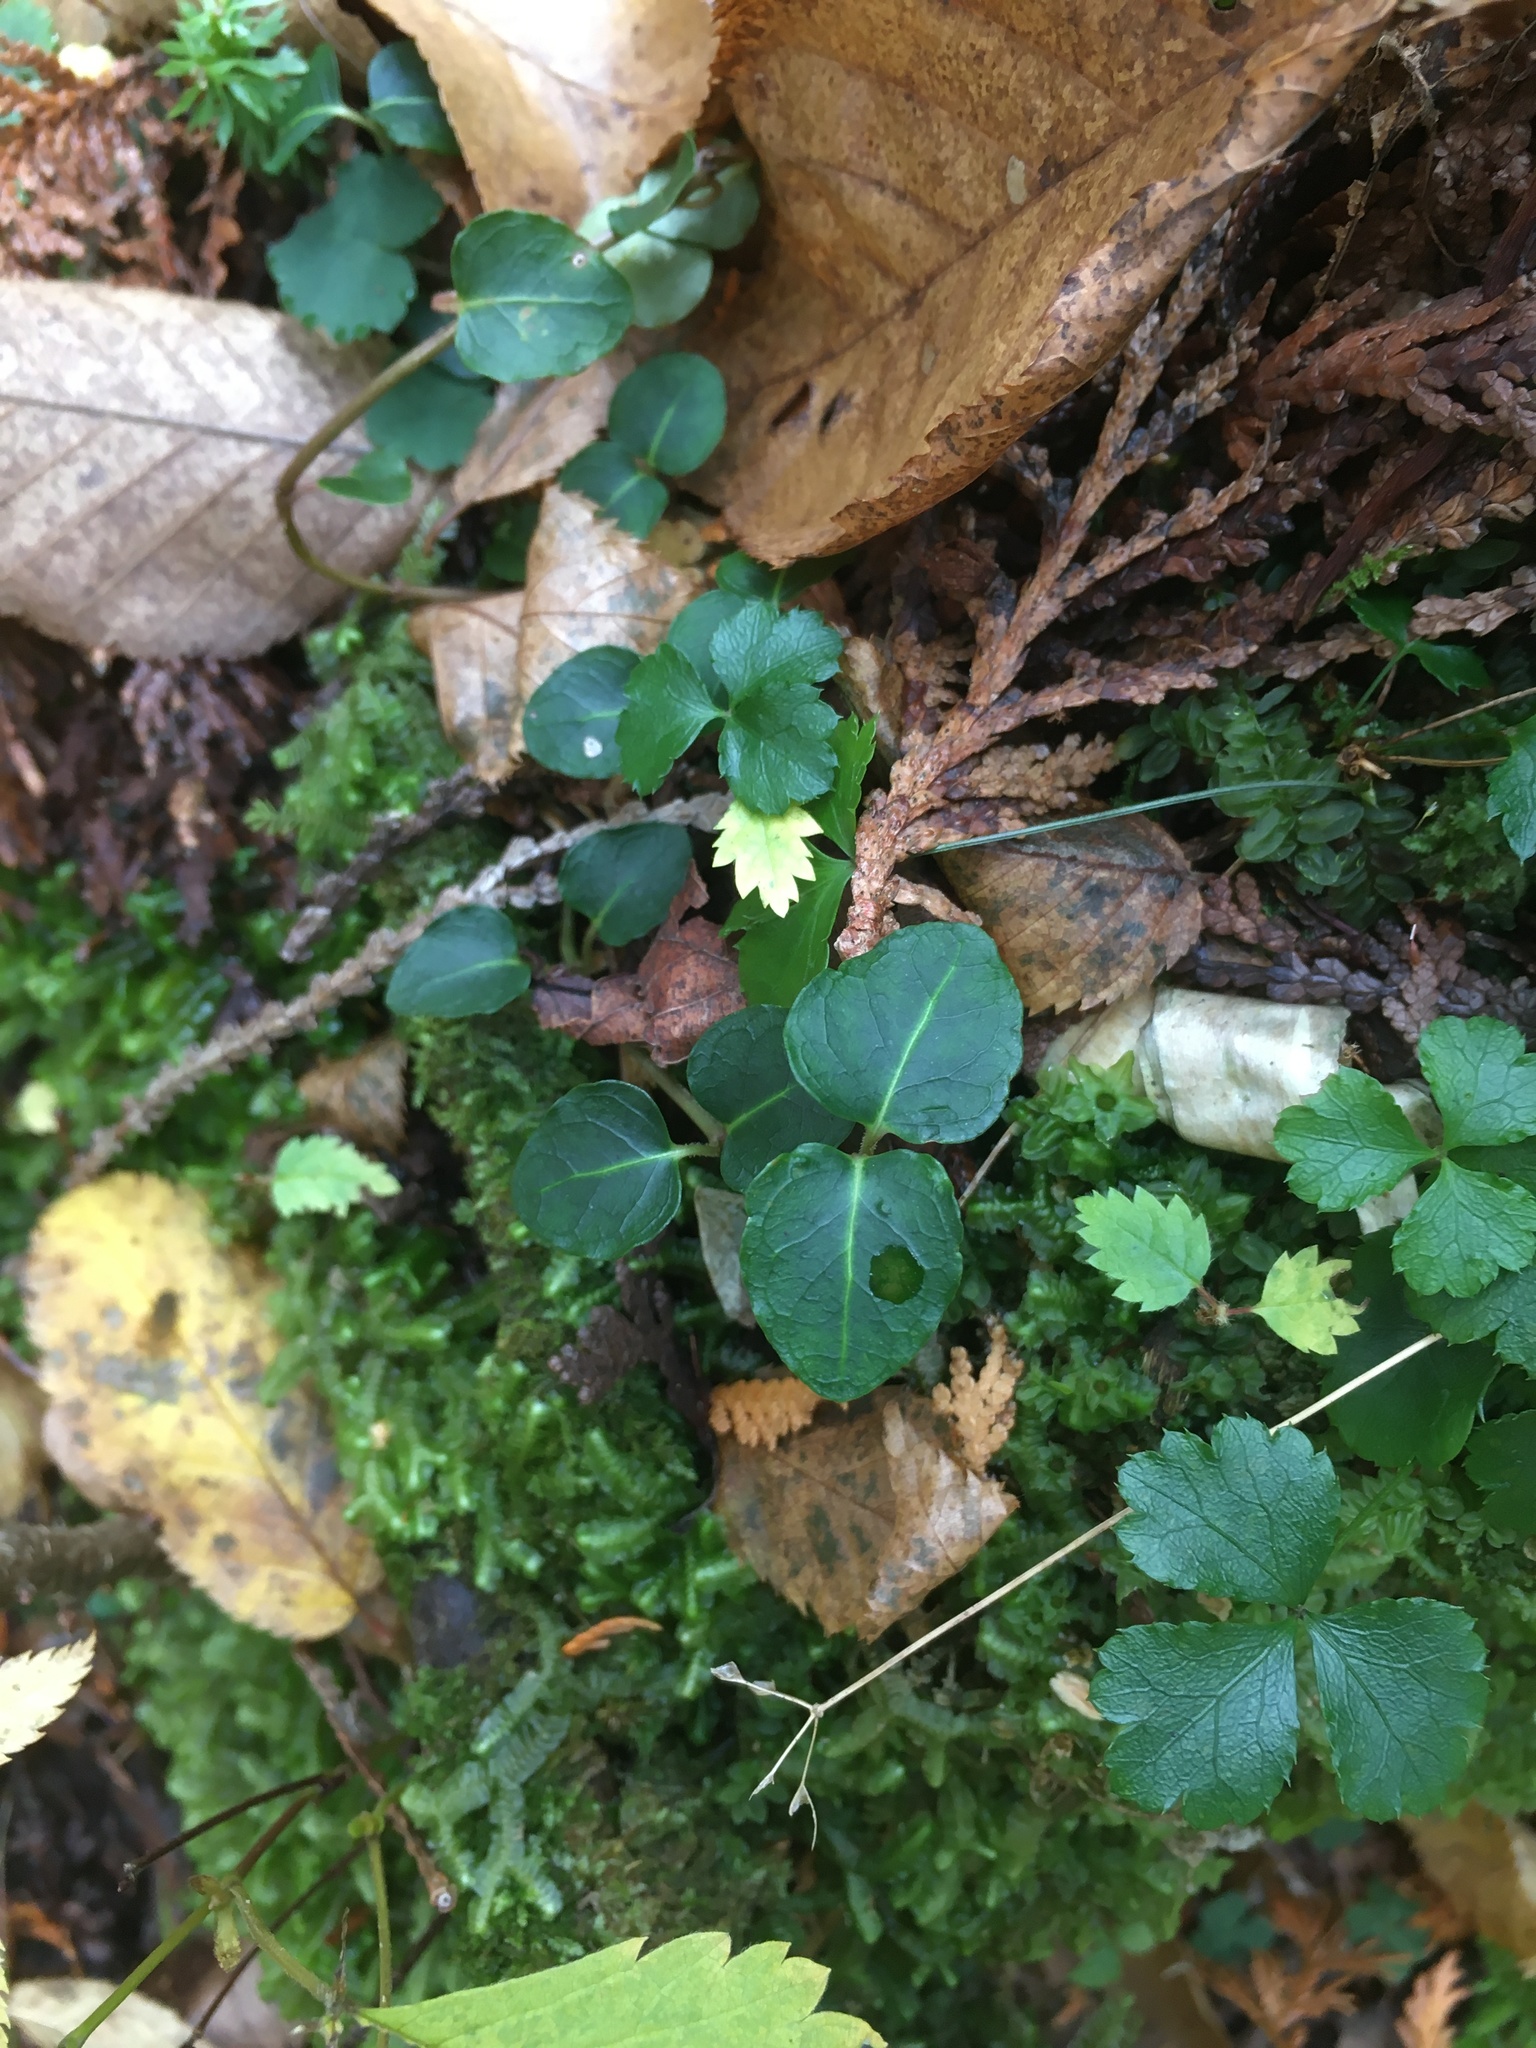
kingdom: Plantae
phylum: Tracheophyta
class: Magnoliopsida
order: Gentianales
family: Rubiaceae
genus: Mitchella
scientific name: Mitchella repens
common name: Partridge-berry
